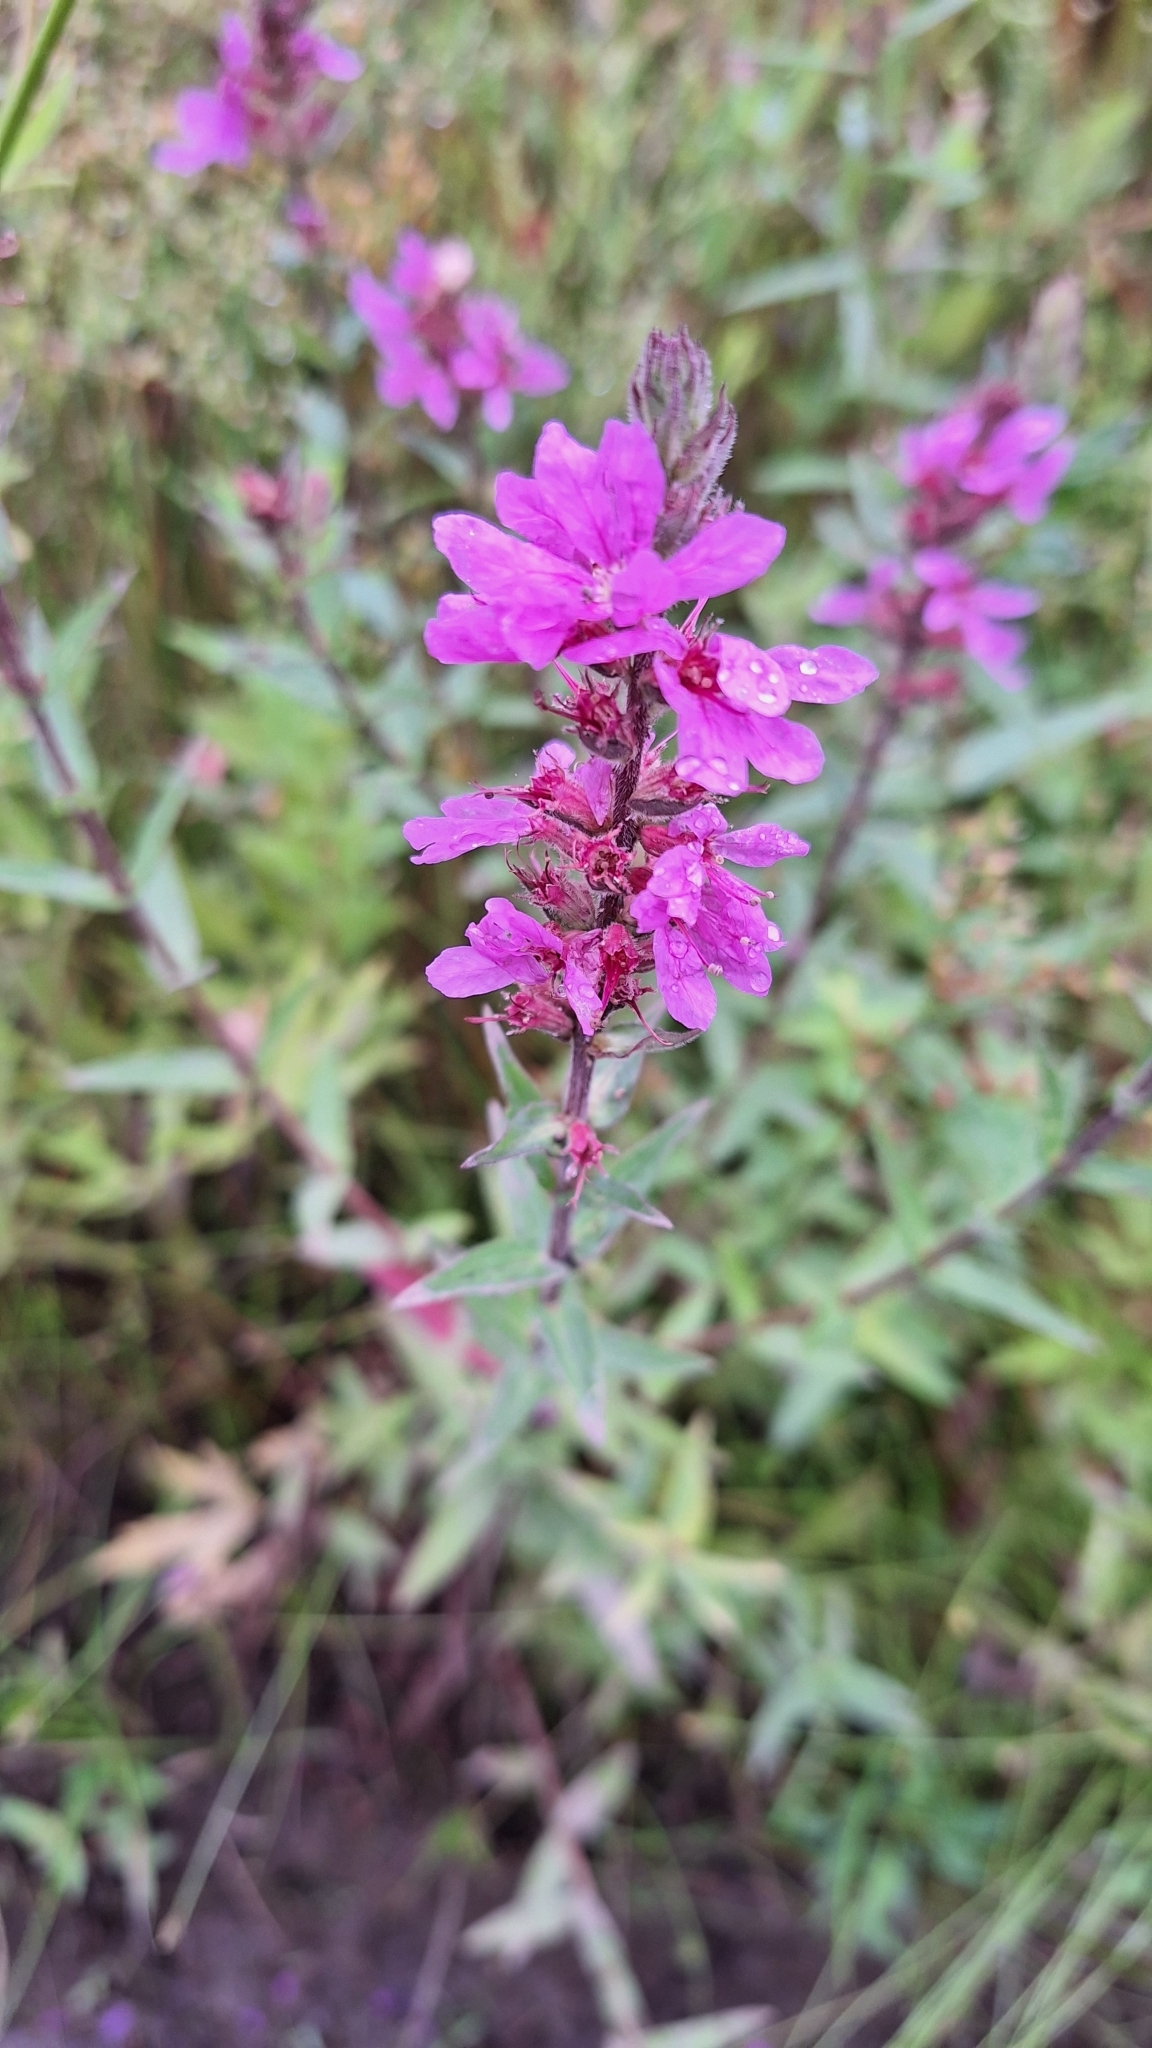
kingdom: Plantae
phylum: Tracheophyta
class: Magnoliopsida
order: Myrtales
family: Lythraceae
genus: Lythrum
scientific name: Lythrum salicaria
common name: Purple loosestrife
